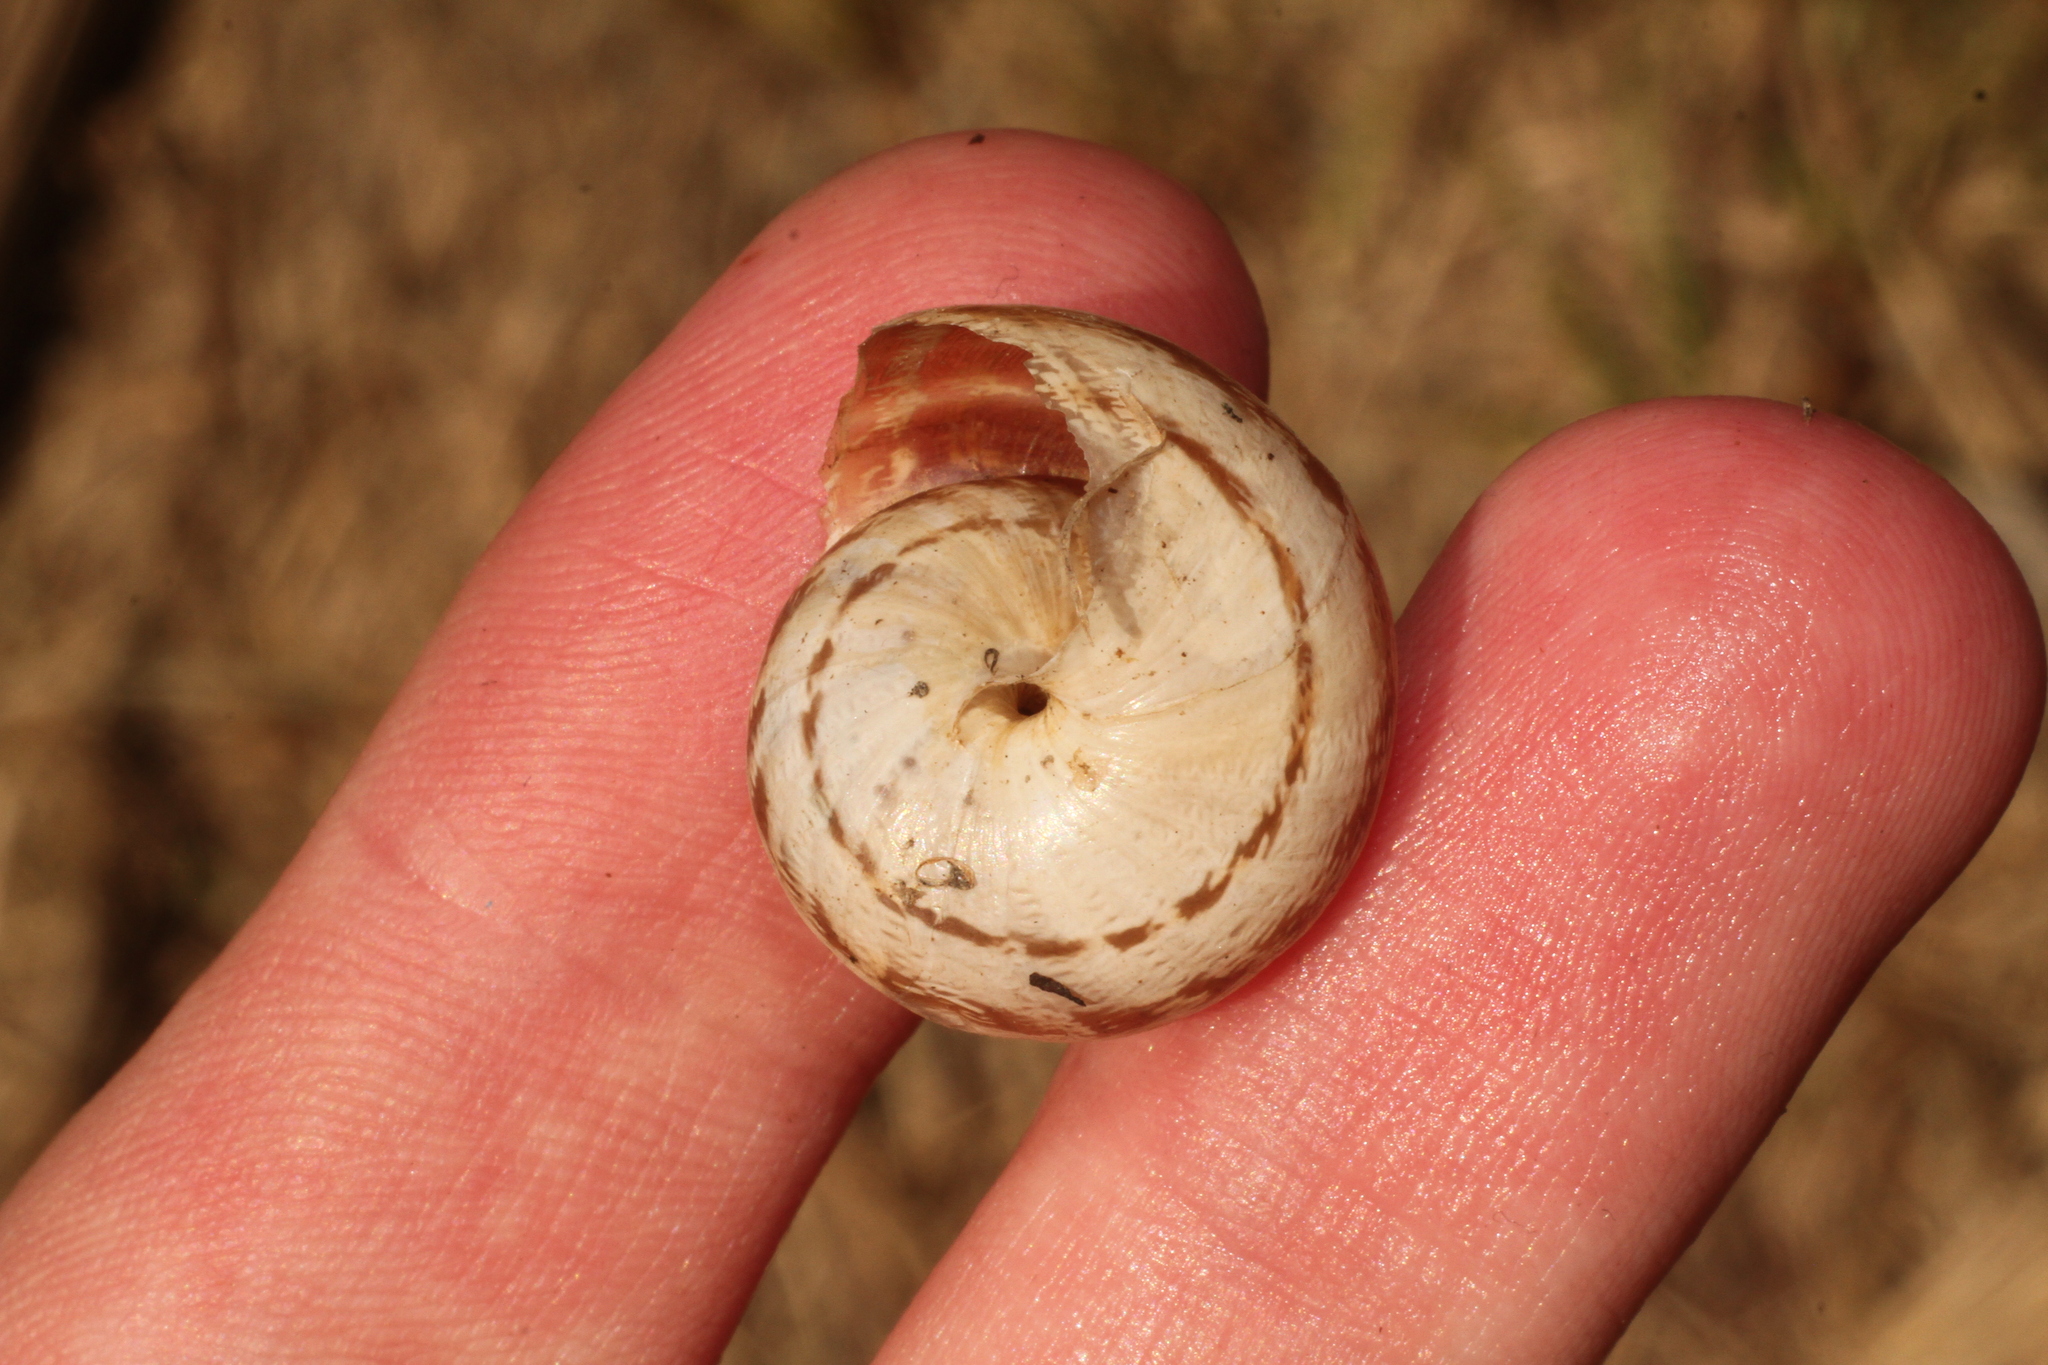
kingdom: Animalia
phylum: Mollusca
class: Gastropoda
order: Stylommatophora
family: Helicidae
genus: Eobania
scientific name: Eobania vermiculata
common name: Chocolateband snail
